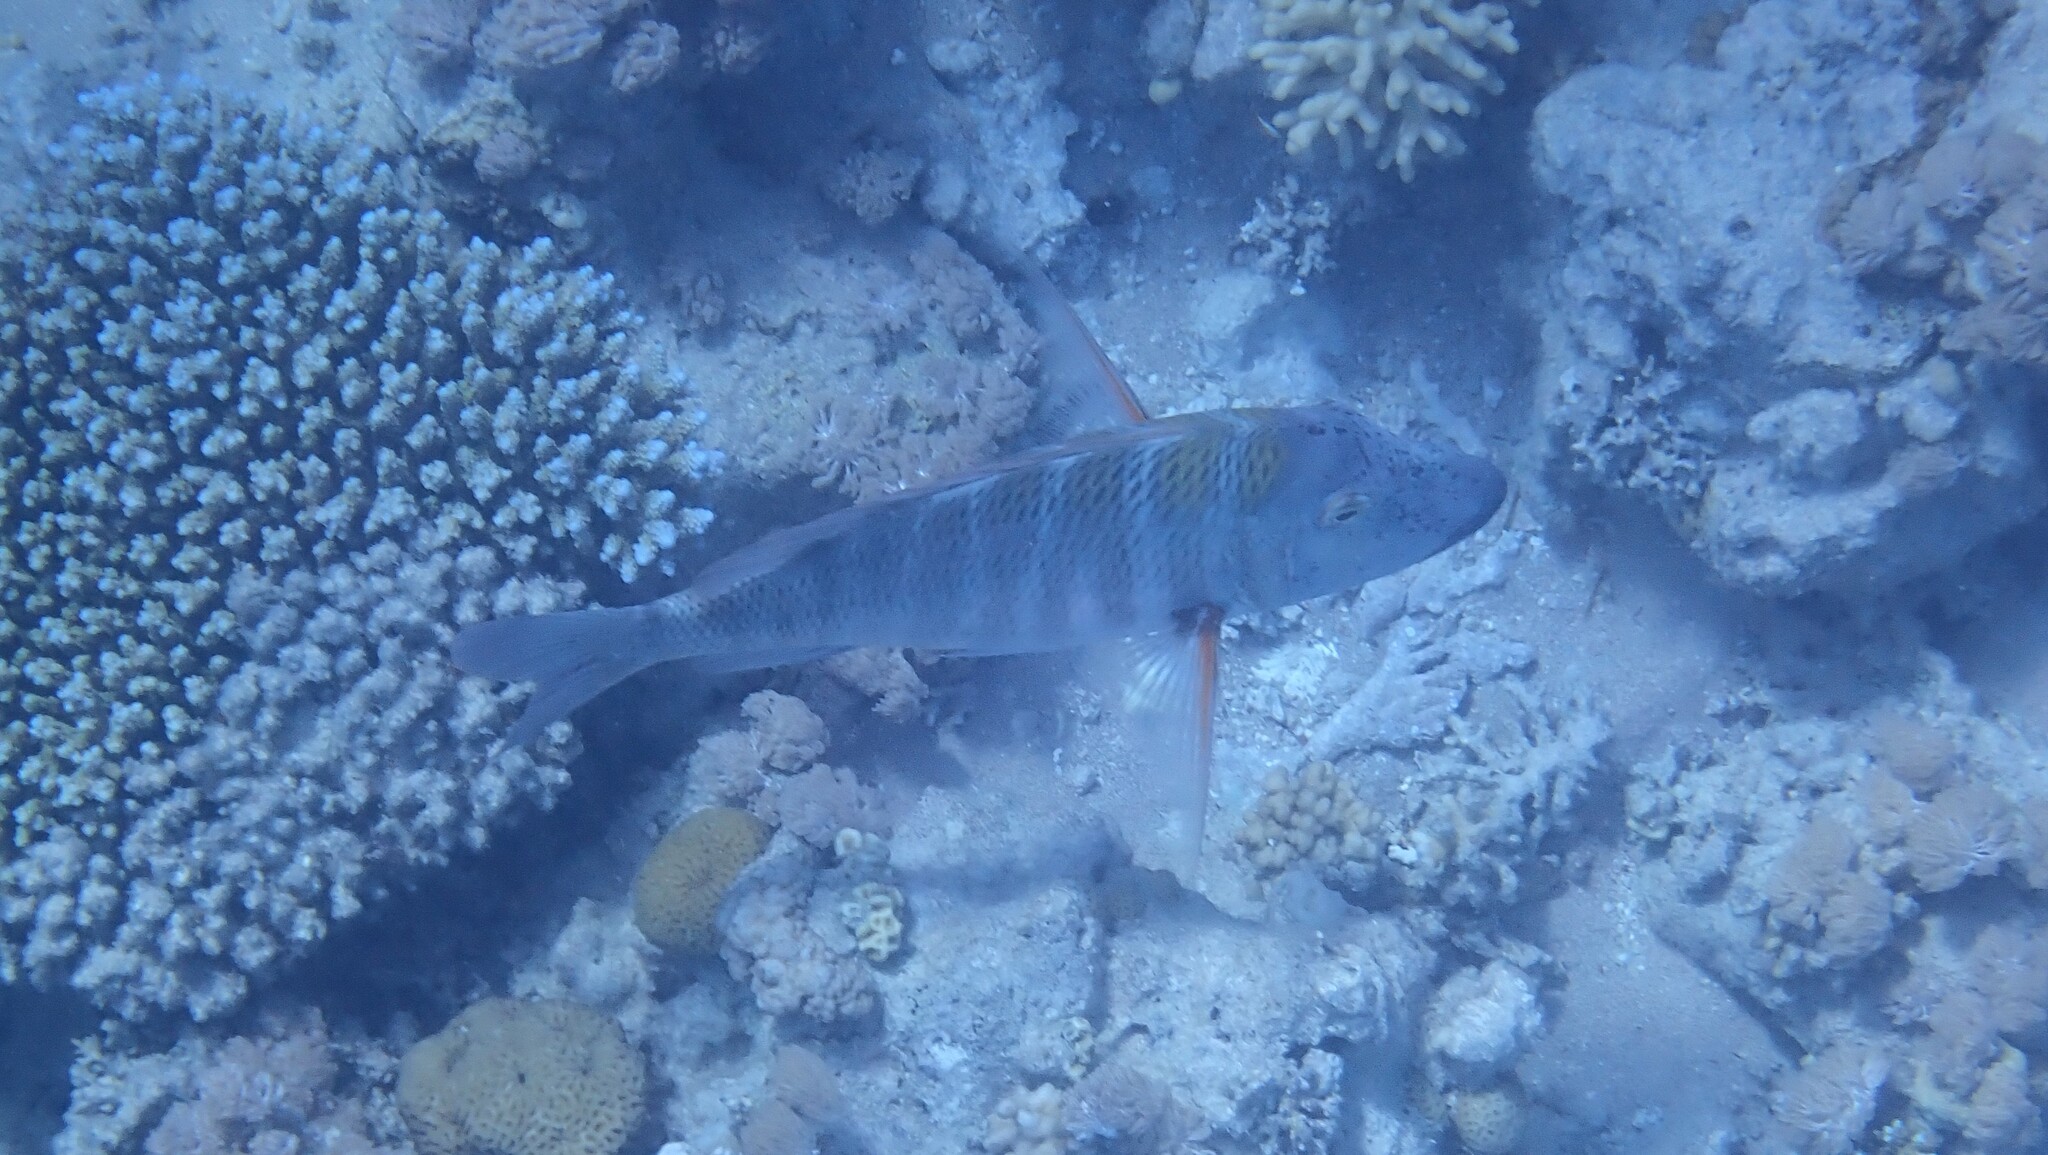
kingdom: Animalia
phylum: Chordata
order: Perciformes
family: Lethrinidae
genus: Lethrinus
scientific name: Lethrinus mahsena
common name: Sky emperor
